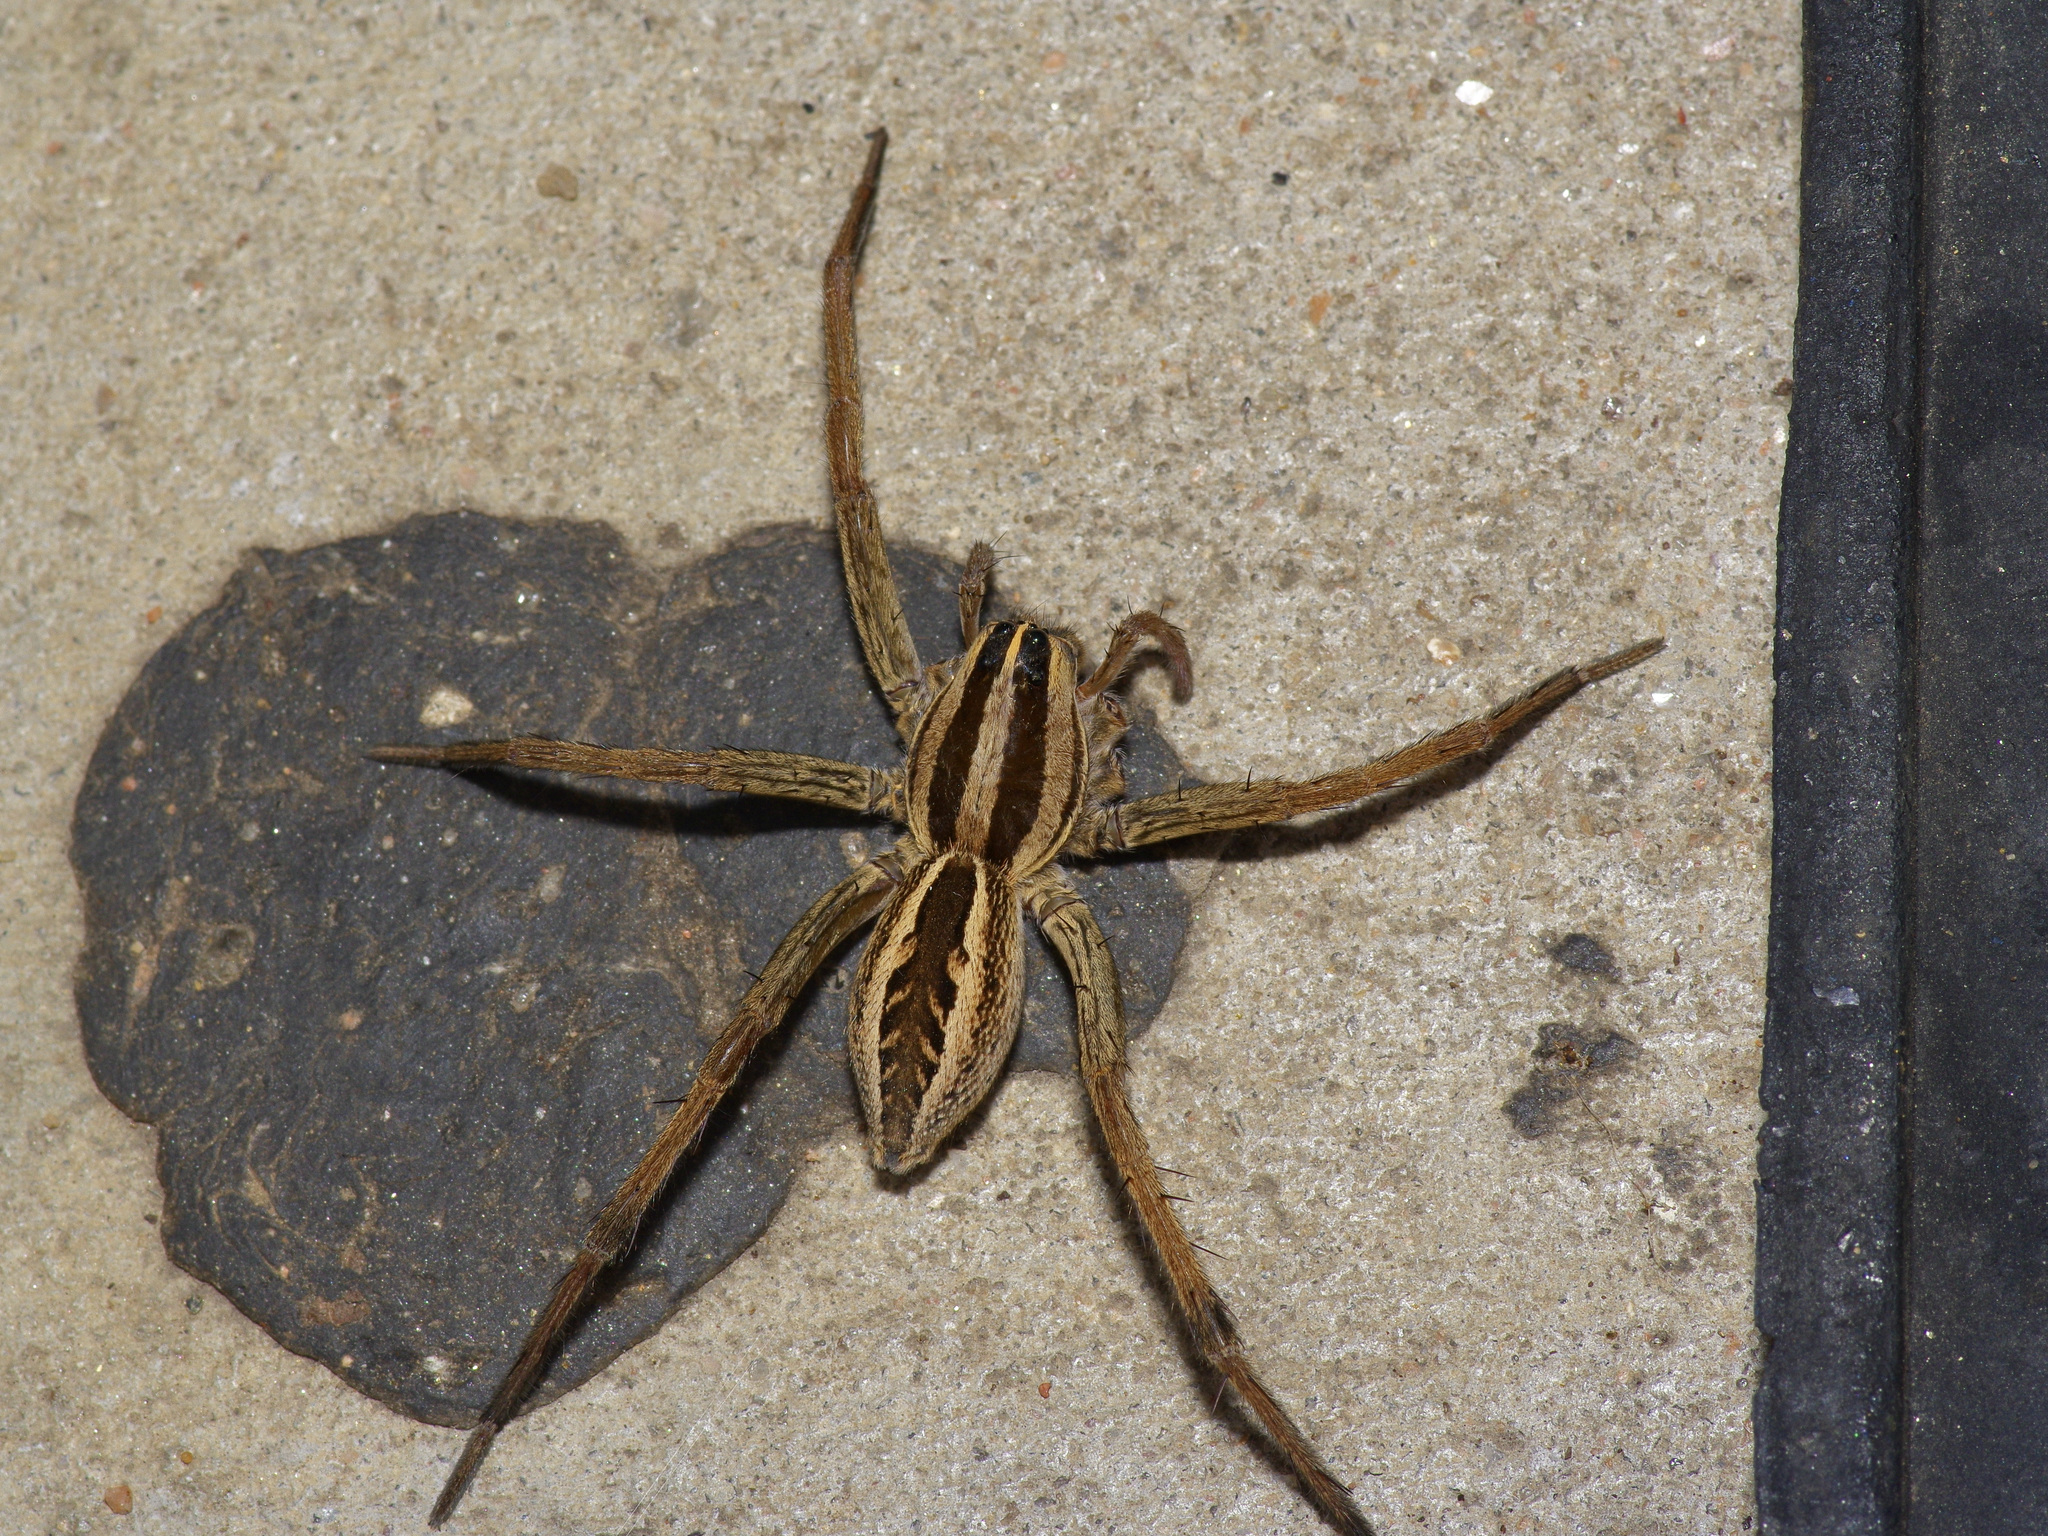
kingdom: Animalia
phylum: Arthropoda
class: Arachnida
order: Araneae
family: Lycosidae
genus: Rabidosa
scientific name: Rabidosa rabida
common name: Rabid wolf spider
